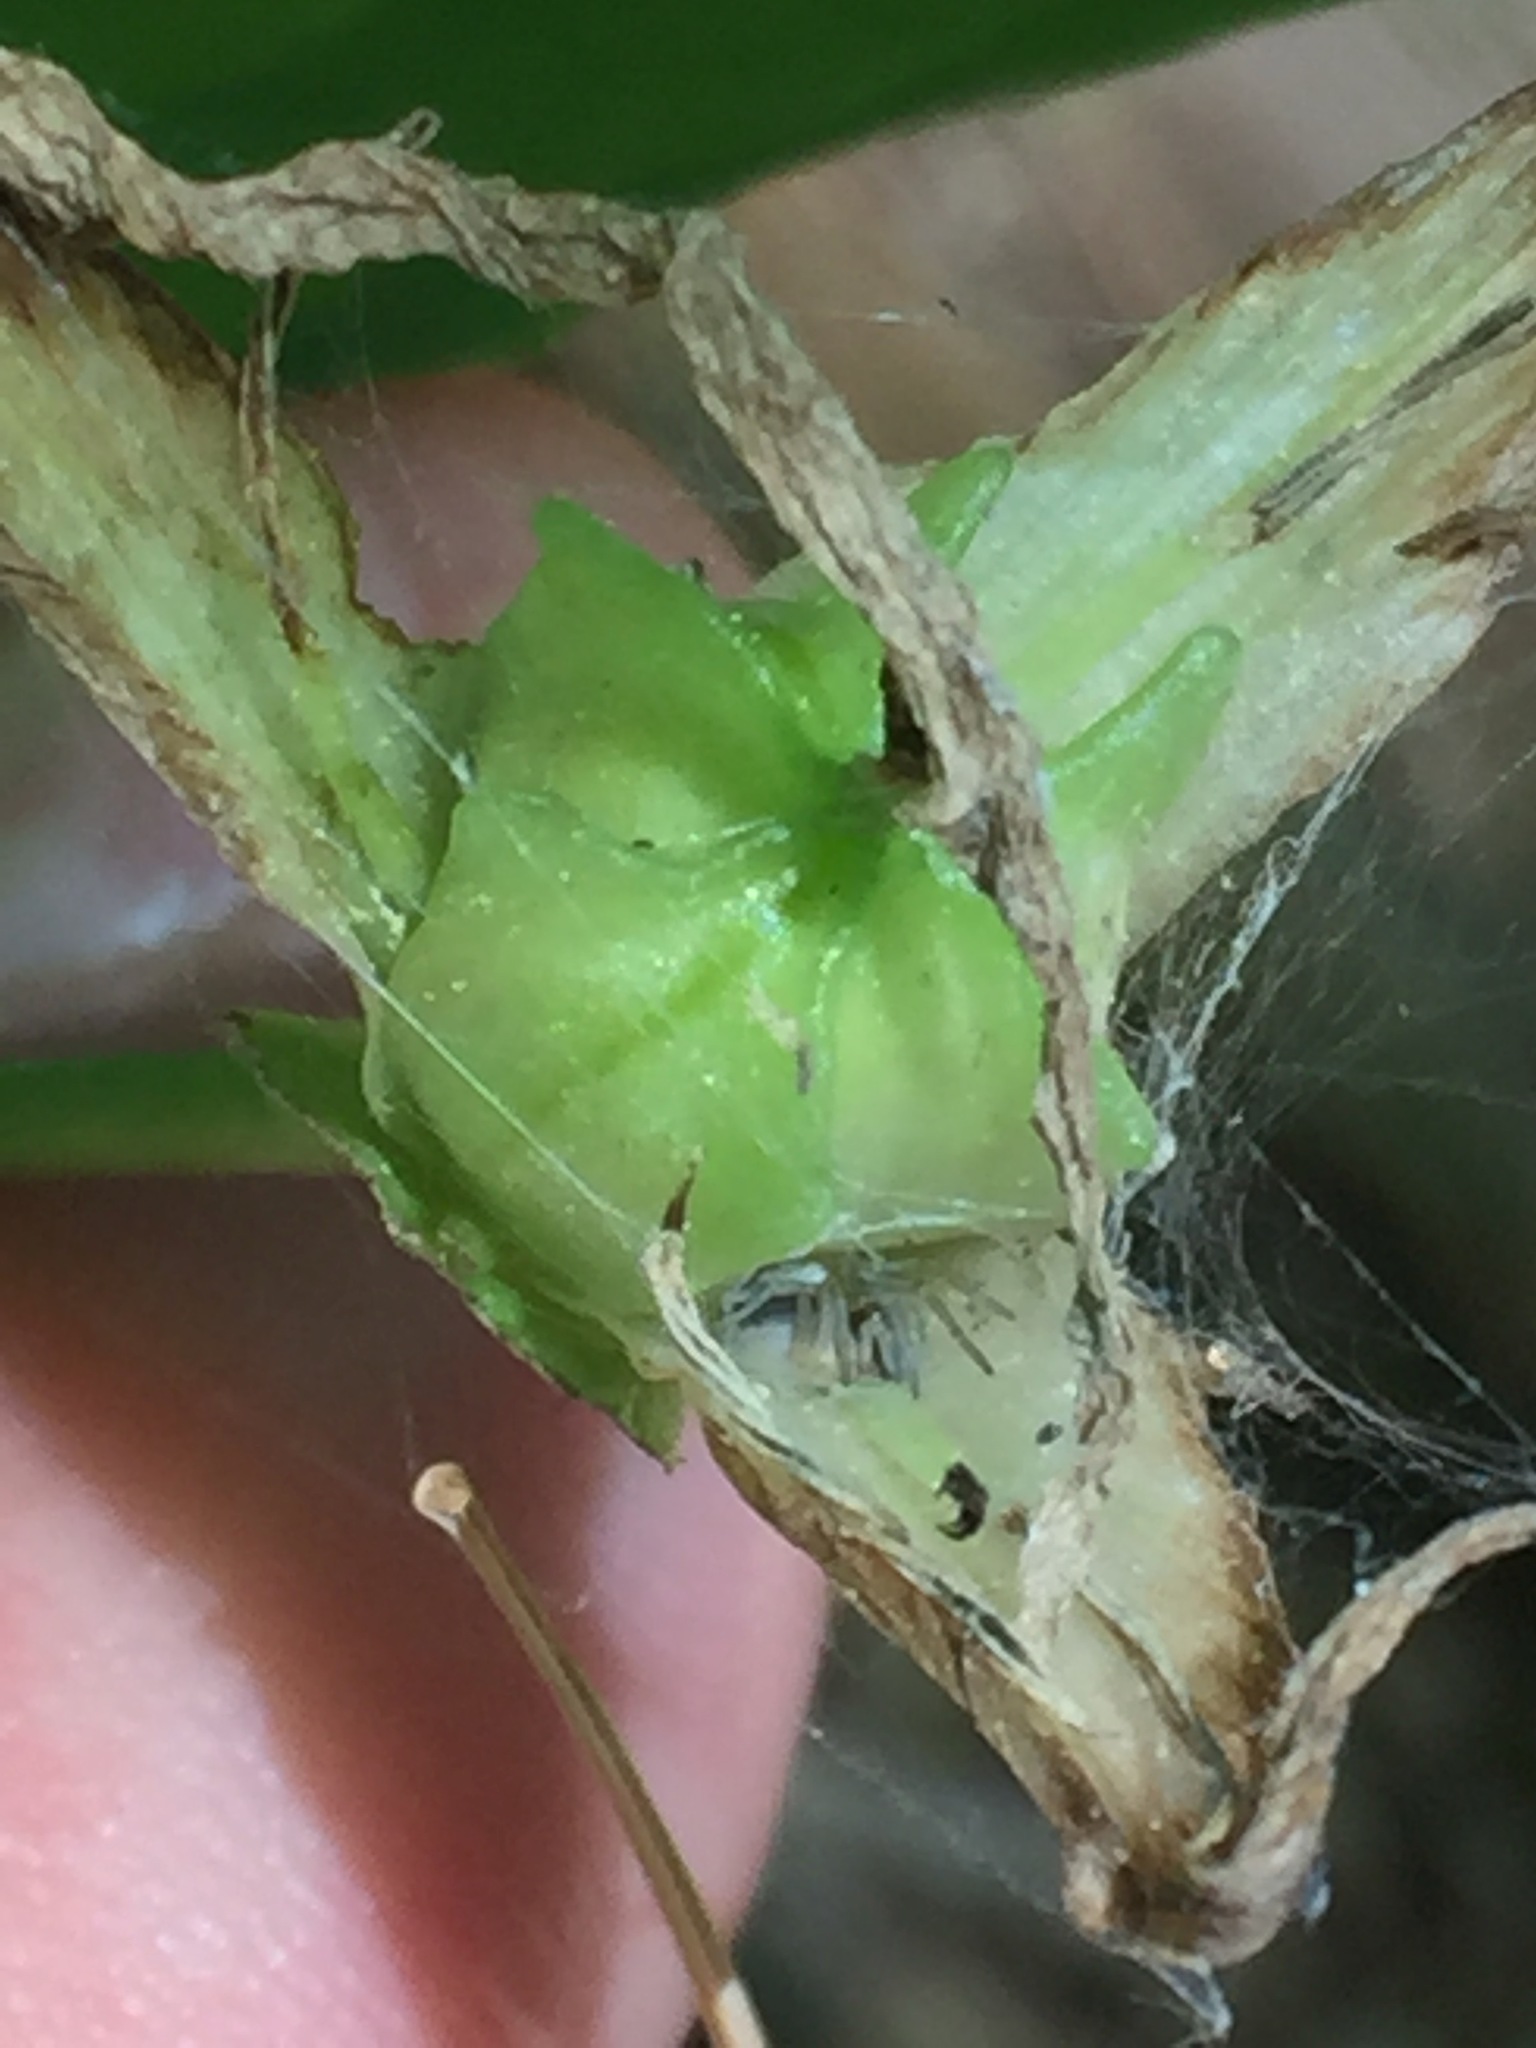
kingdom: Plantae
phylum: Tracheophyta
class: Liliopsida
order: Liliales
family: Melanthiaceae
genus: Trillium
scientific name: Trillium grandiflorum
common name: Great white trillium
